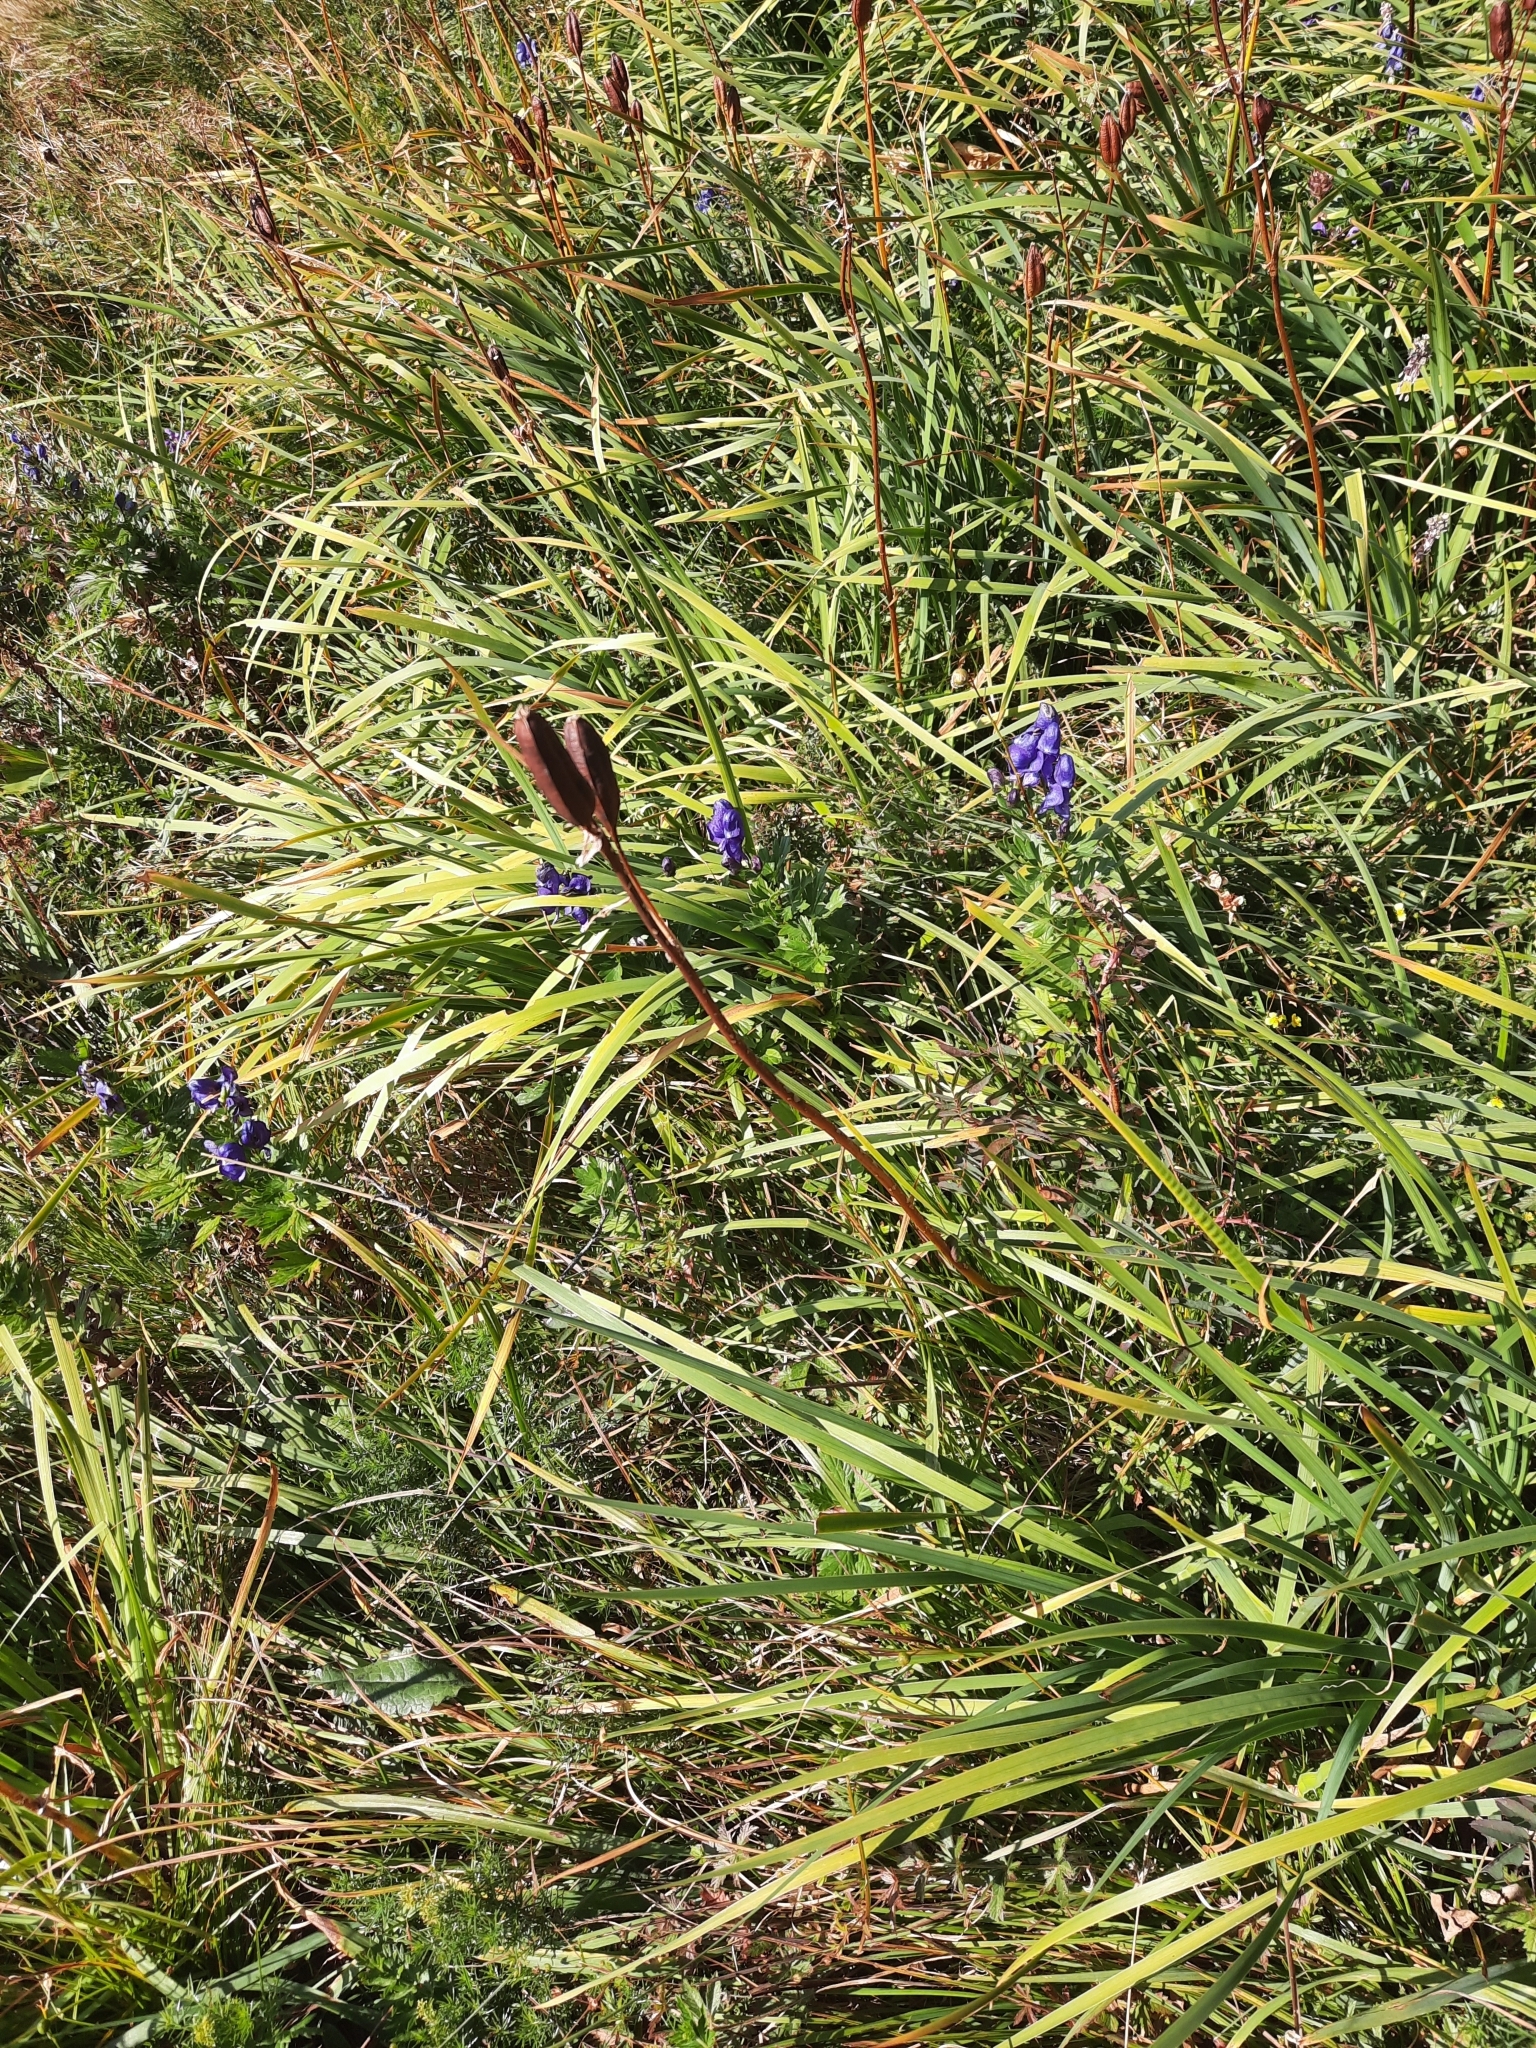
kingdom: Plantae
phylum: Tracheophyta
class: Liliopsida
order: Asparagales
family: Iridaceae
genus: Iris
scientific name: Iris sibirica
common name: Siberian iris
